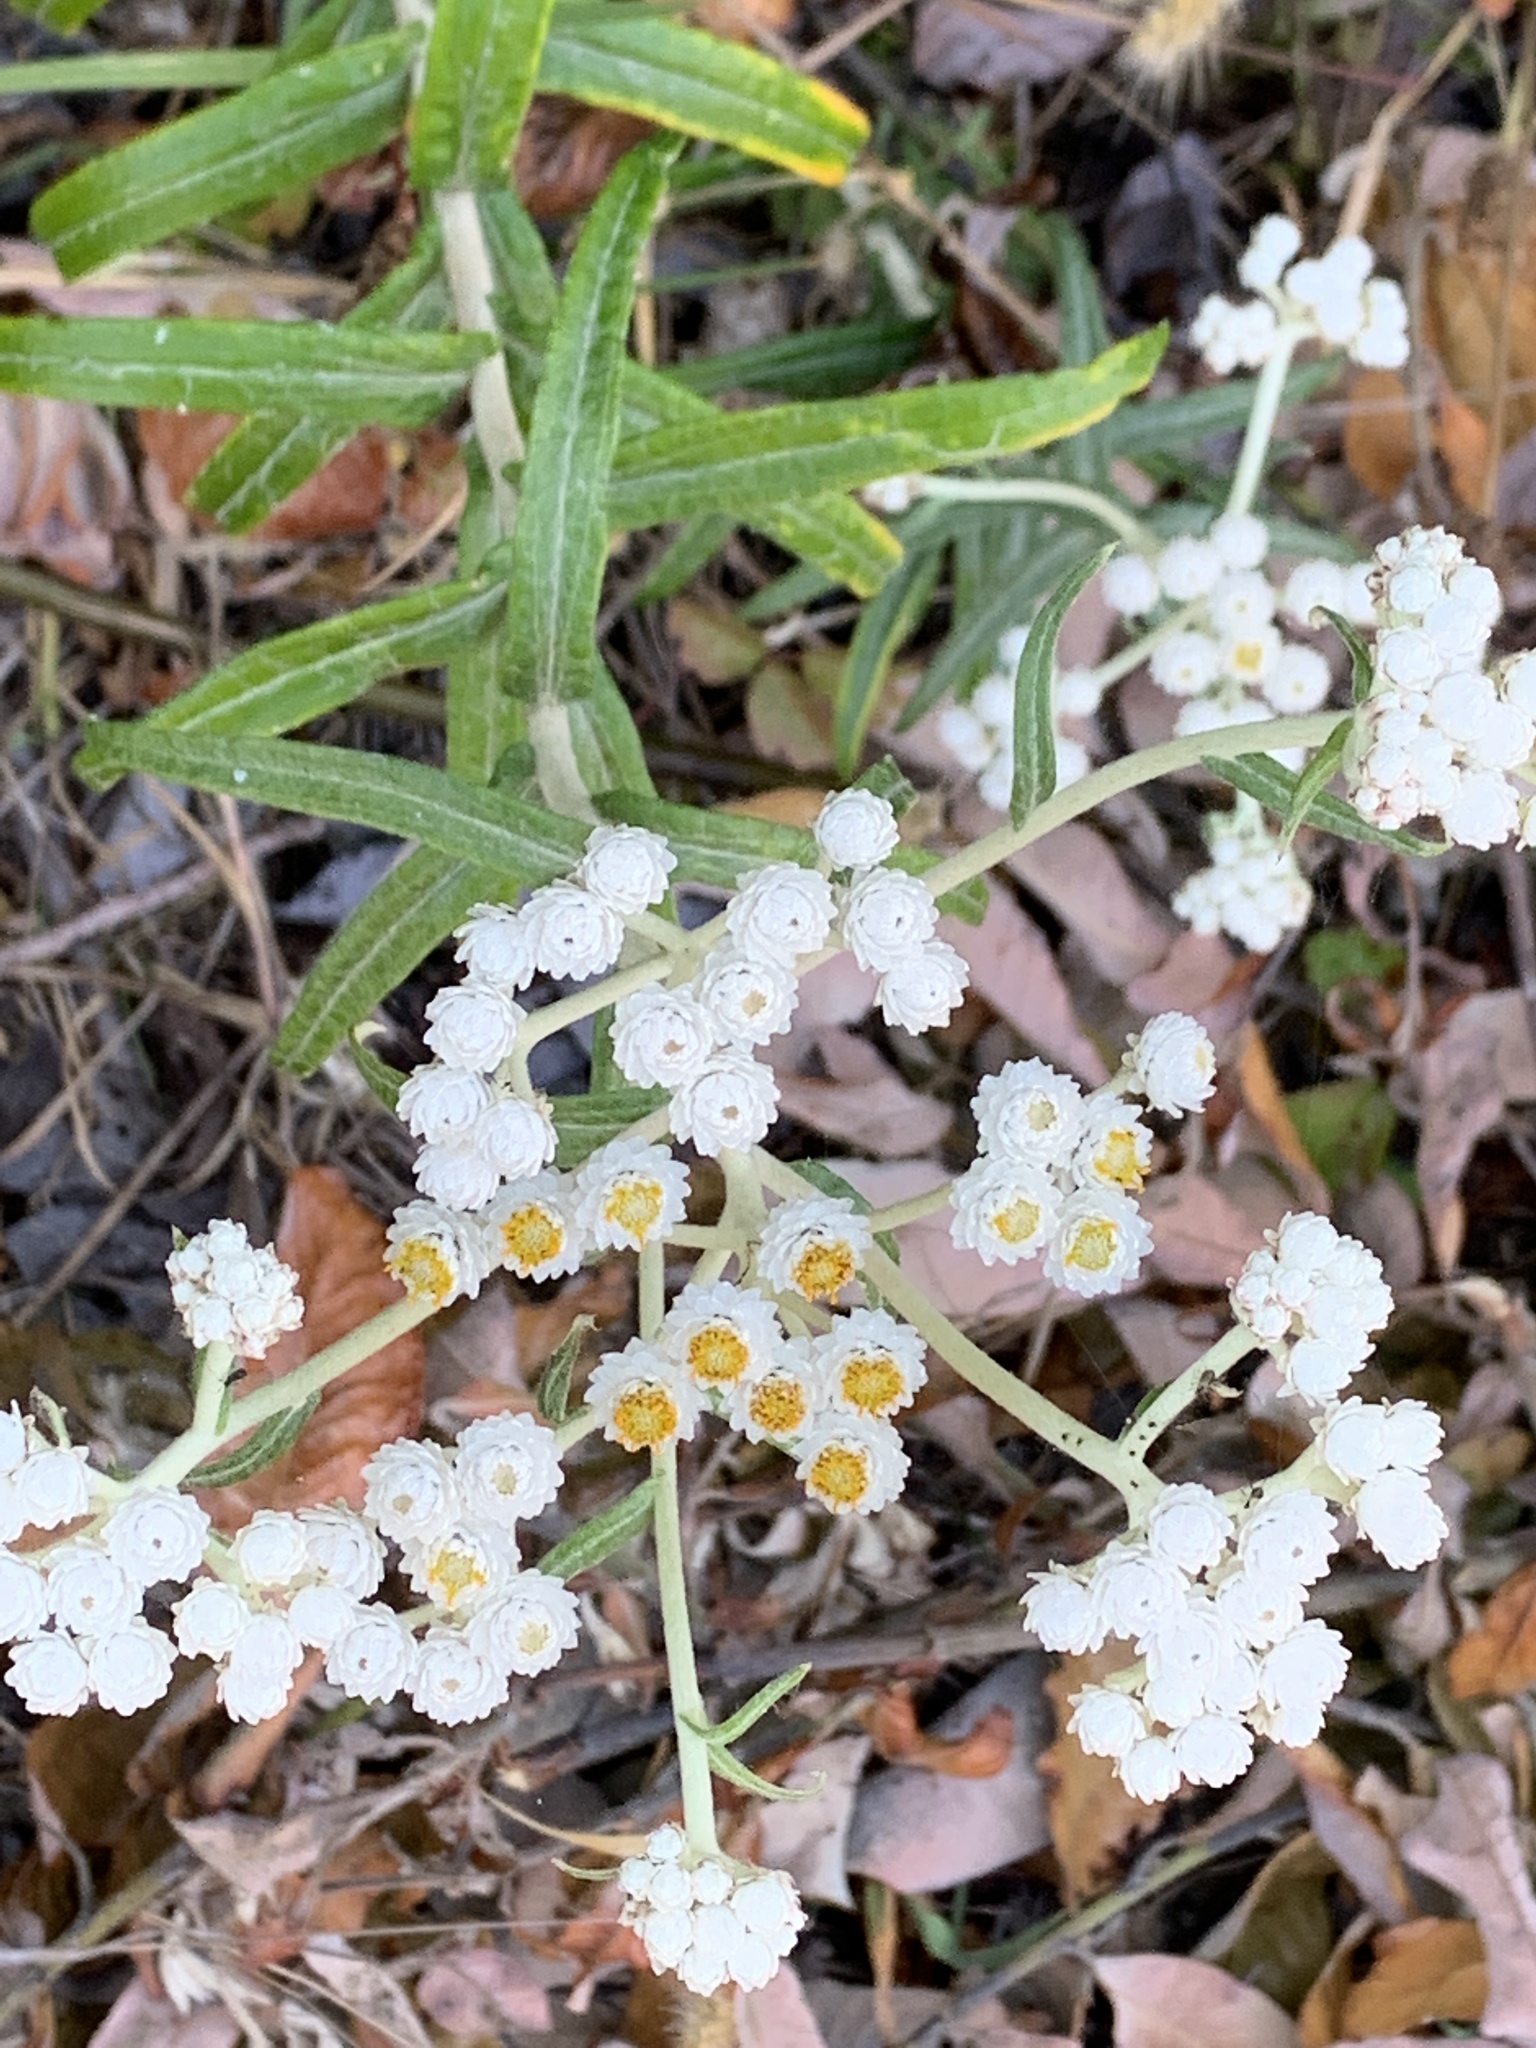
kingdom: Plantae
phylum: Tracheophyta
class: Magnoliopsida
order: Asterales
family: Asteraceae
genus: Anaphalis
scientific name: Anaphalis margaritacea
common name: Pearly everlasting
